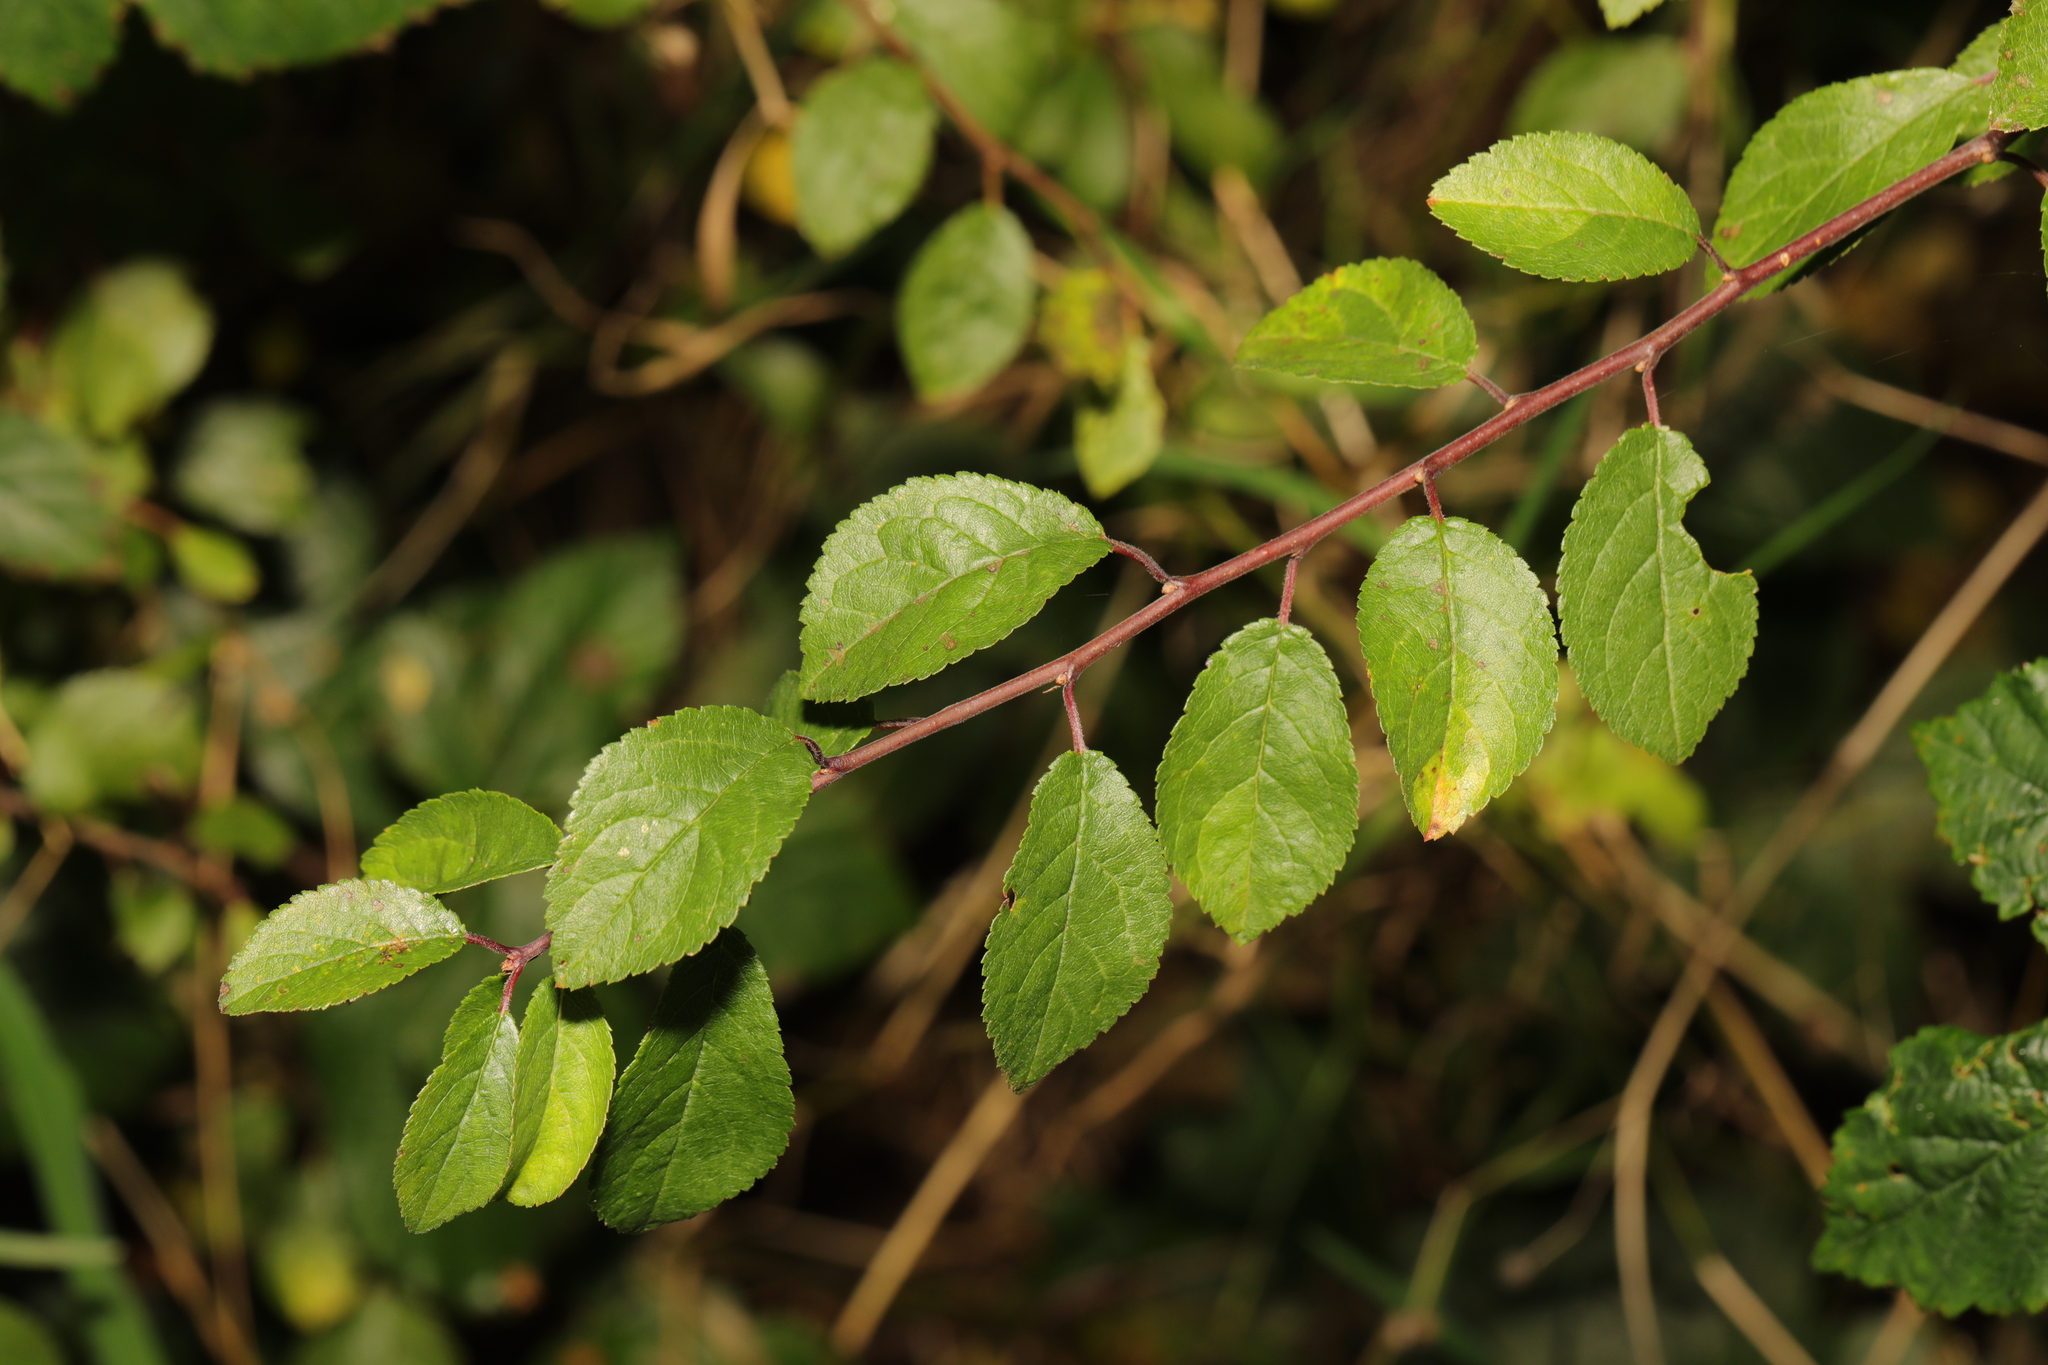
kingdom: Plantae
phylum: Tracheophyta
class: Magnoliopsida
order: Rosales
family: Rosaceae
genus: Prunus
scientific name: Prunus spinosa
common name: Blackthorn
